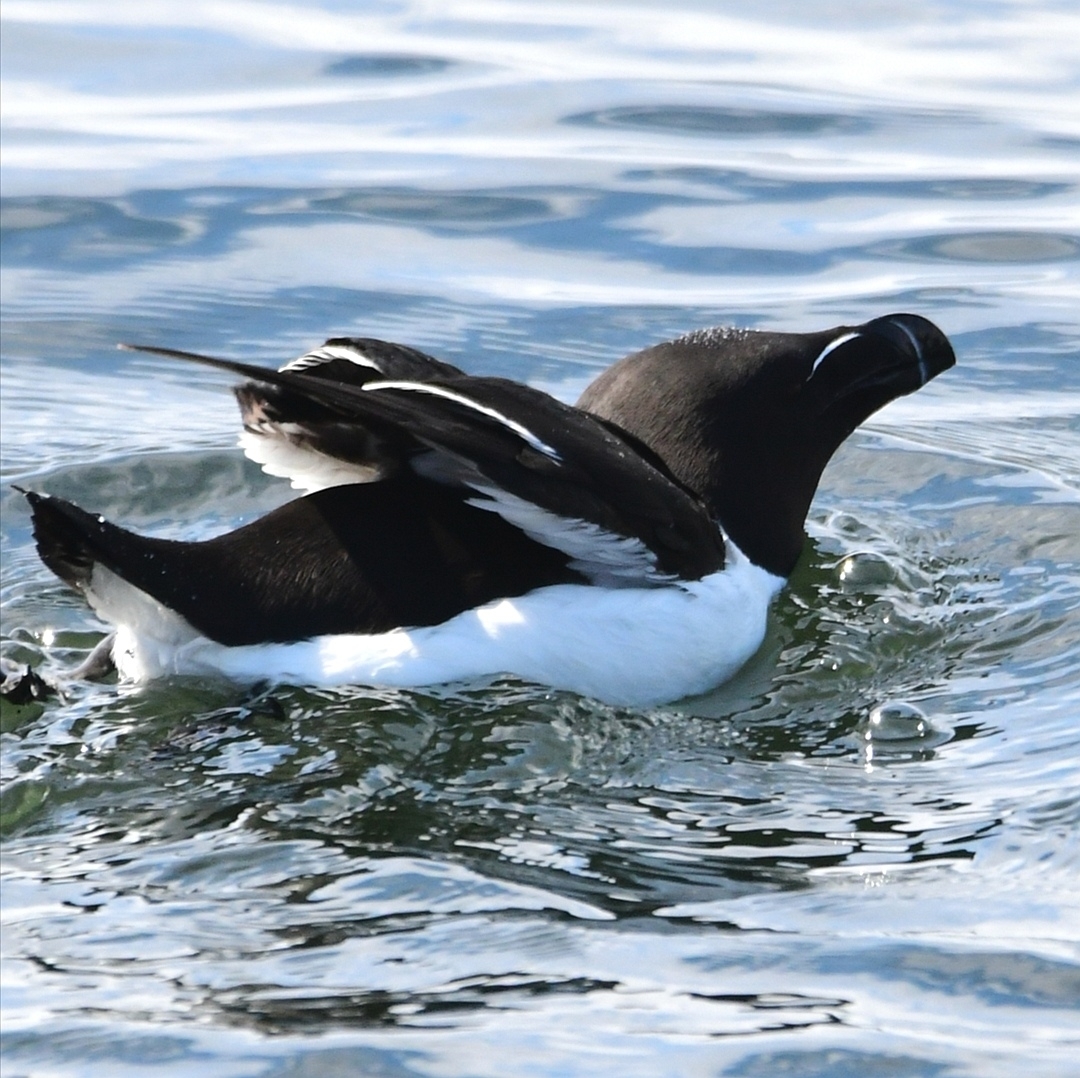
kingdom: Animalia
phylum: Chordata
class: Aves
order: Charadriiformes
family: Alcidae
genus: Alca
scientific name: Alca torda
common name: Razorbill
